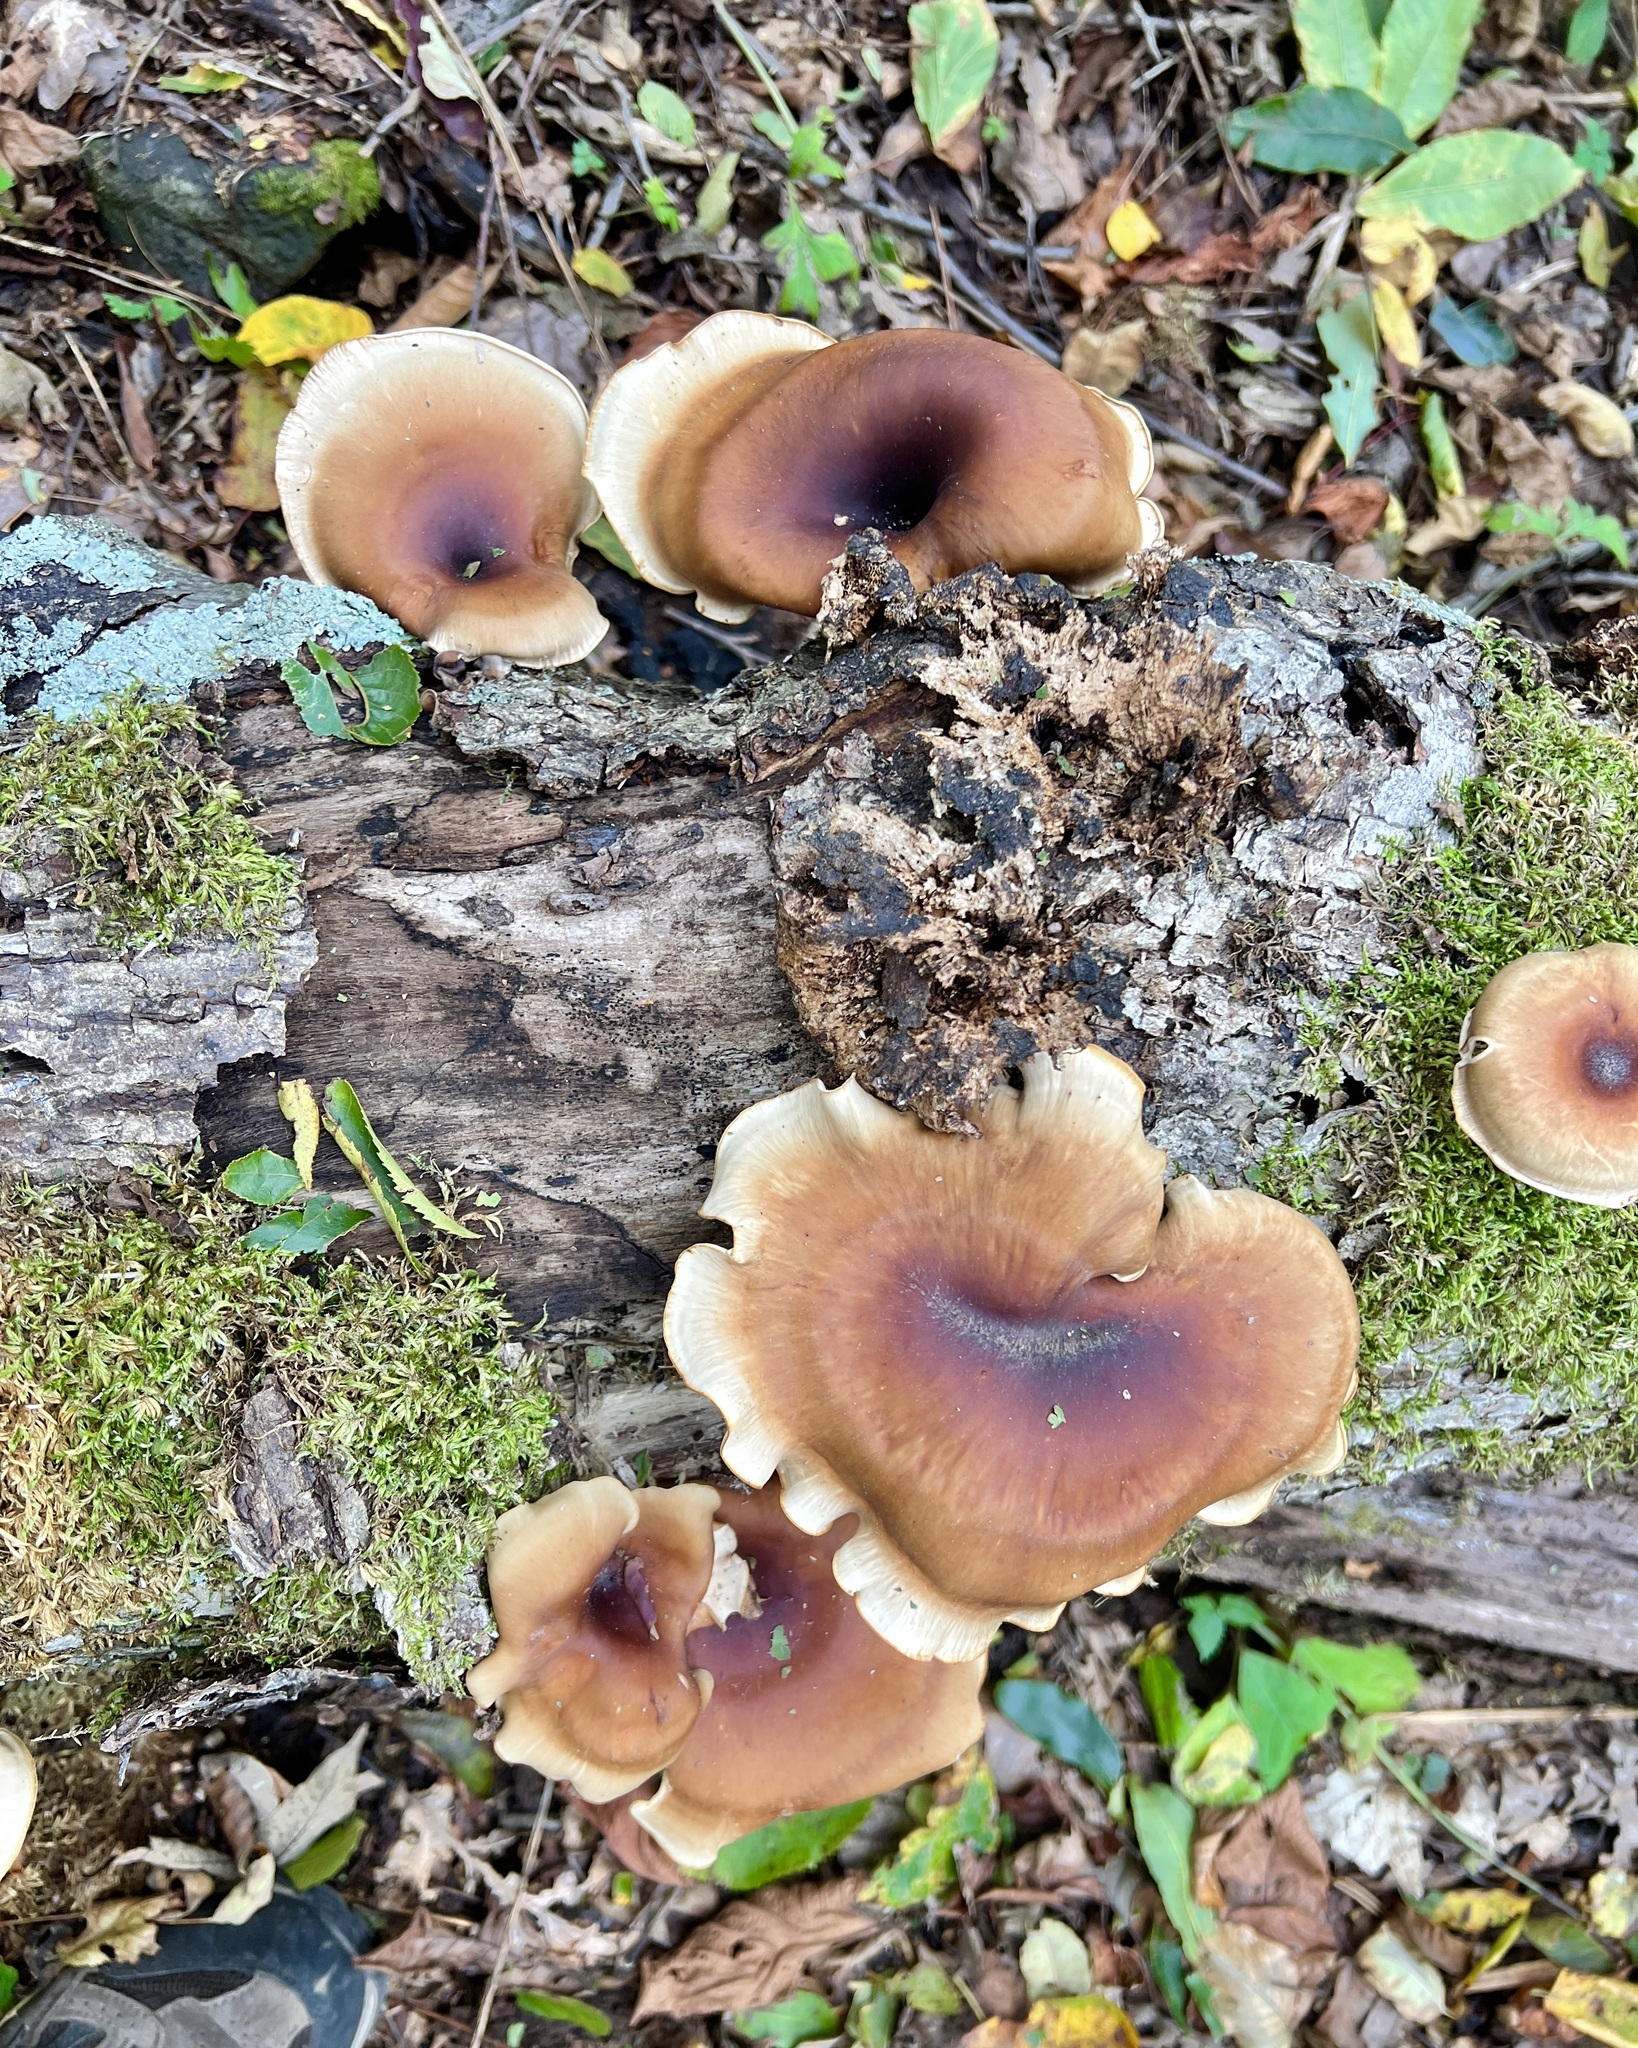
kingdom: Fungi
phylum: Basidiomycota
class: Agaricomycetes
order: Polyporales
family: Polyporaceae
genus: Picipes
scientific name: Picipes badius
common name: Bay polypore
